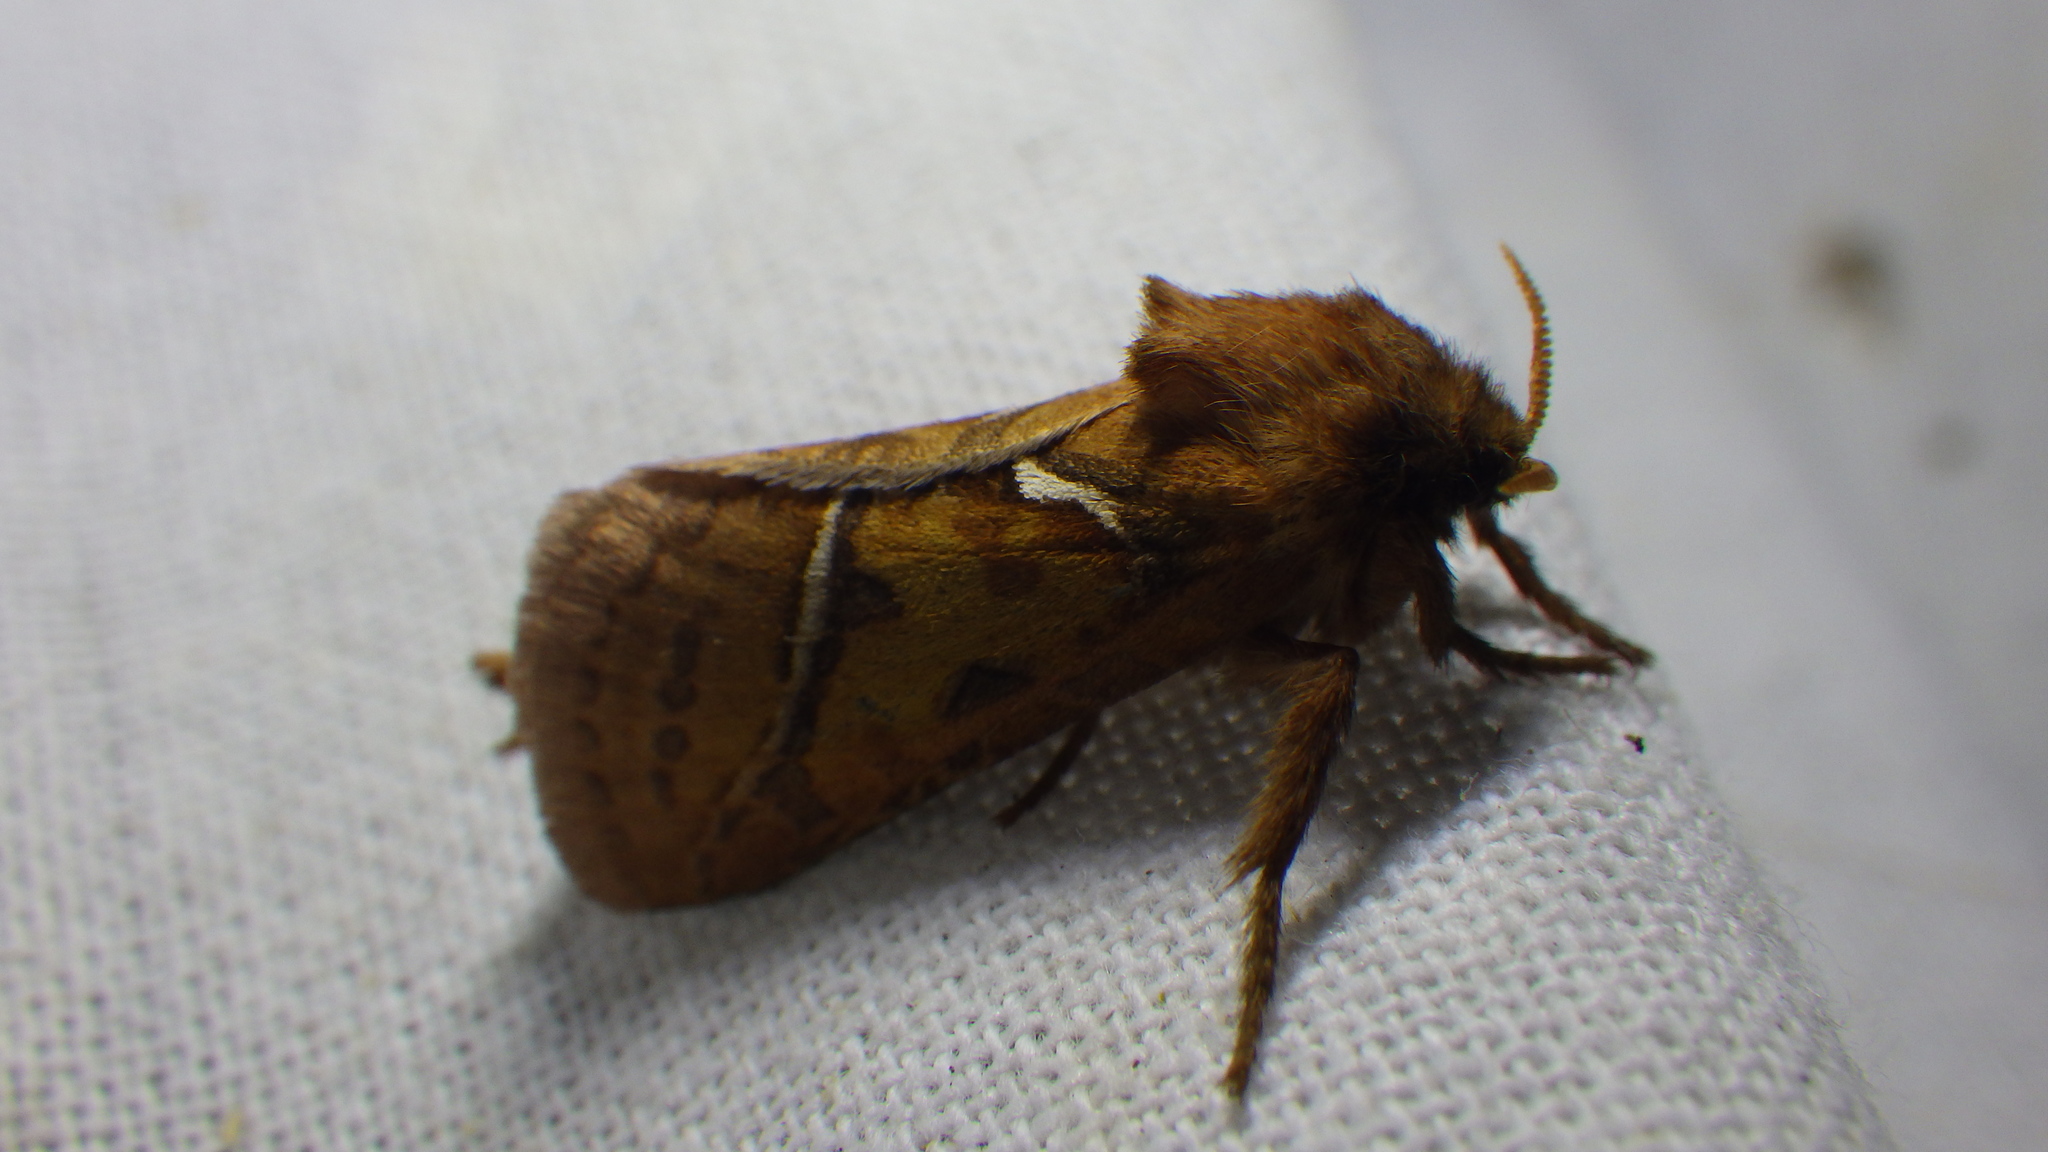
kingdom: Animalia
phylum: Arthropoda
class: Insecta
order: Lepidoptera
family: Hepialidae
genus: Triodia
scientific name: Triodia sylvina
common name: Orange swift
